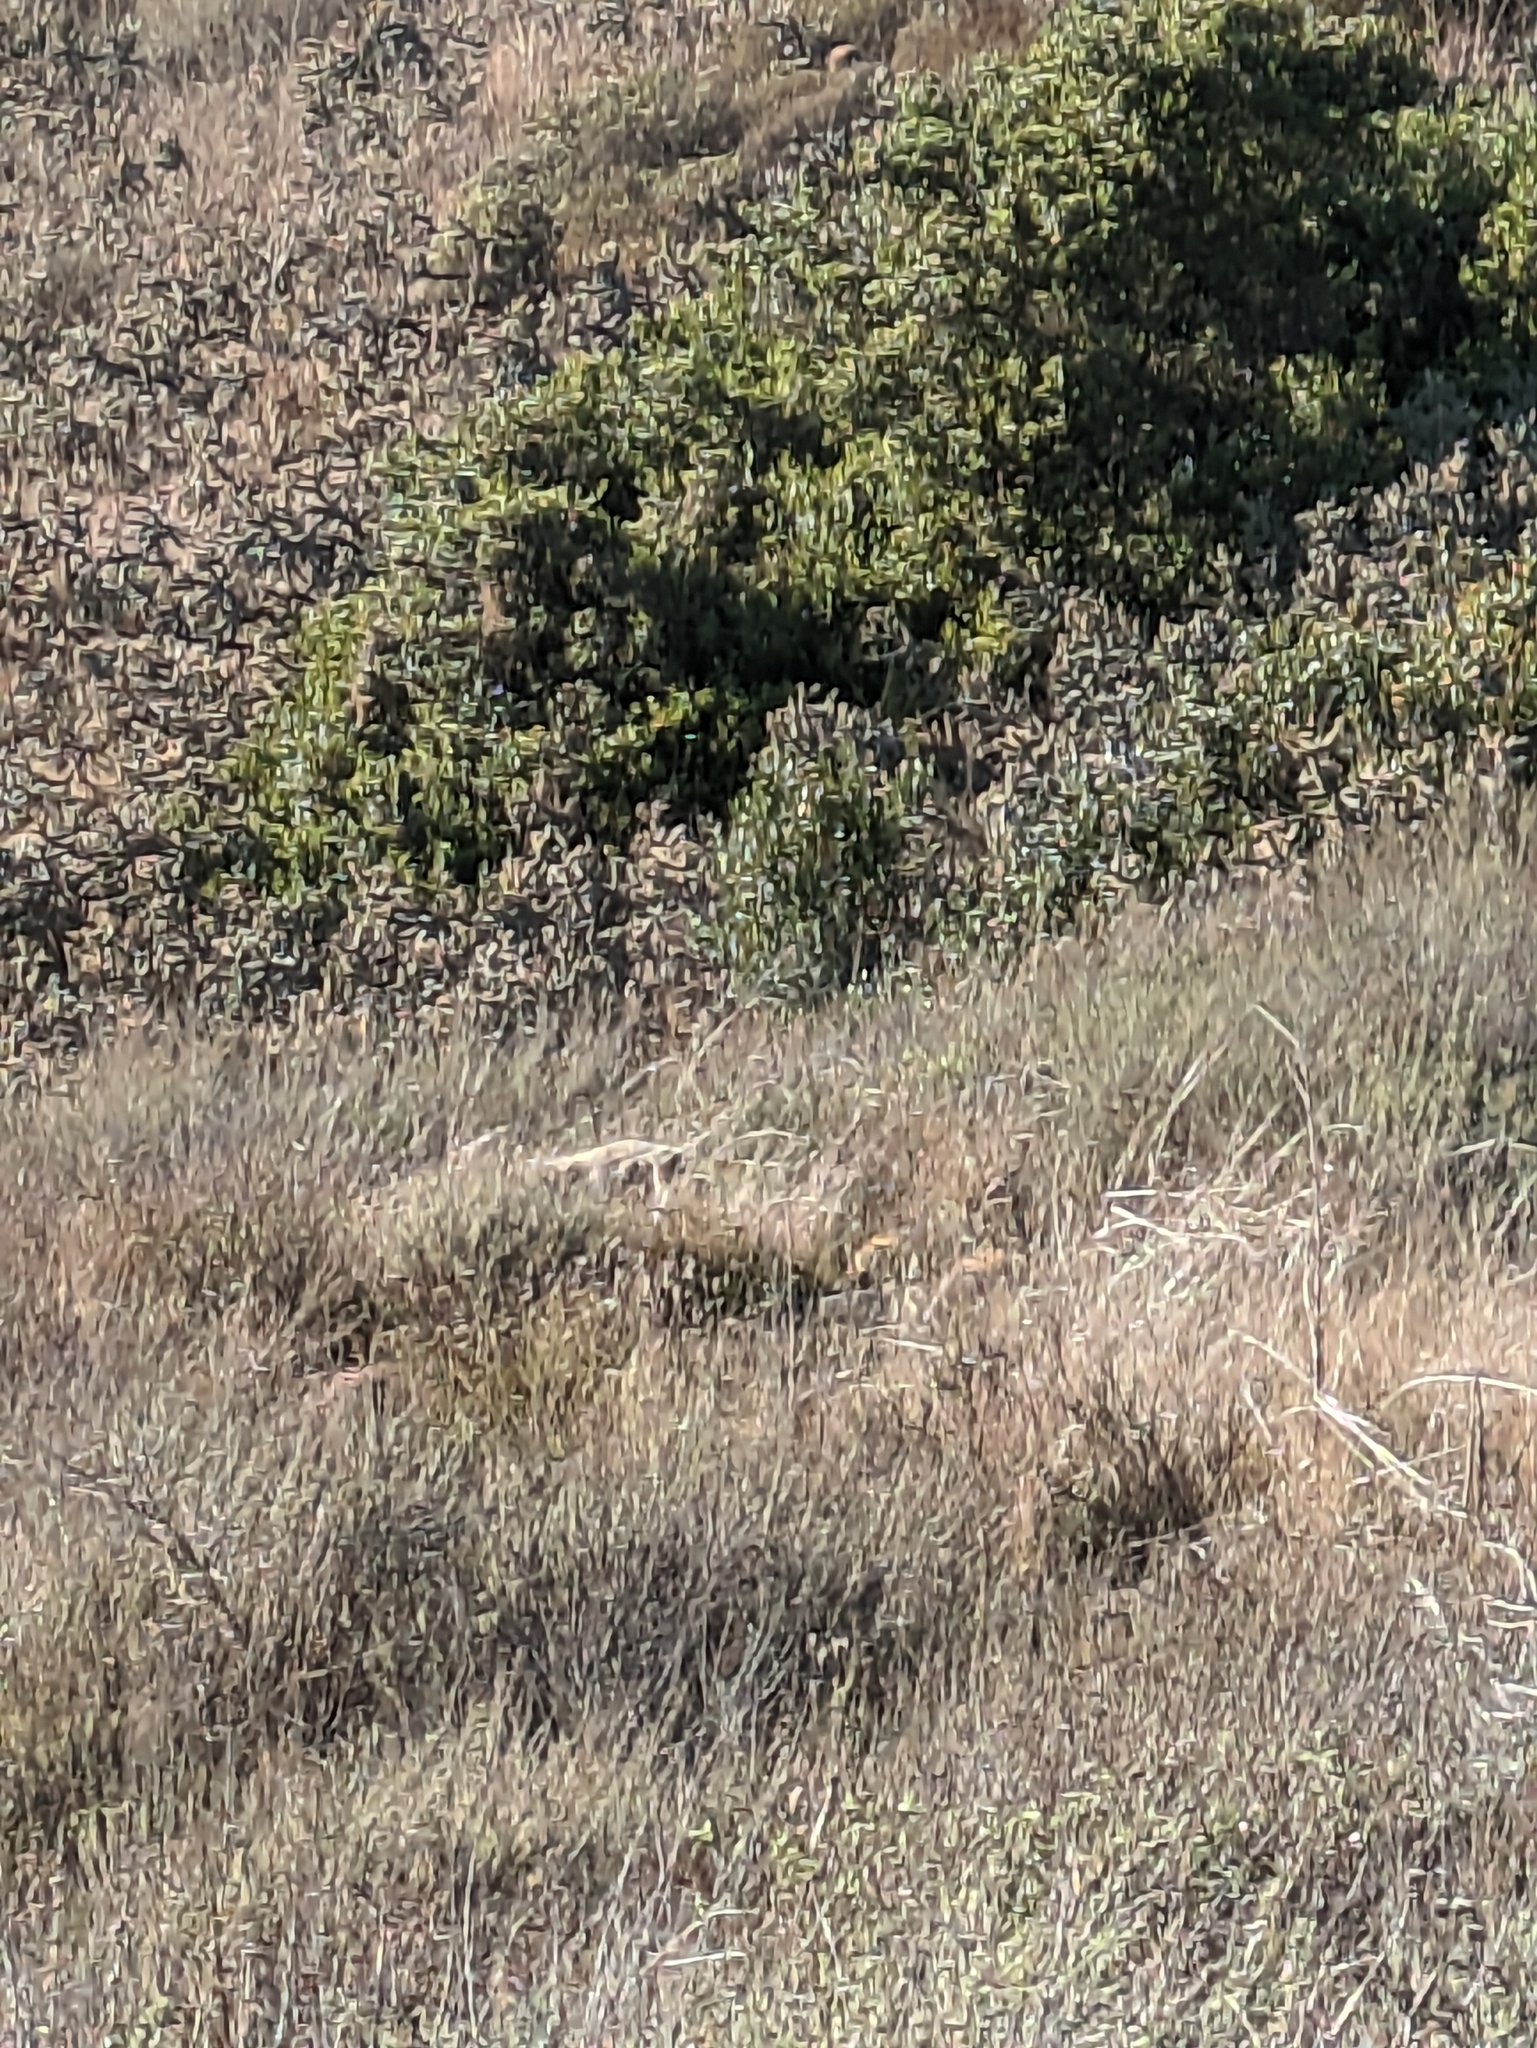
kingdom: Animalia
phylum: Chordata
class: Mammalia
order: Carnivora
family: Canidae
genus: Canis
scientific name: Canis latrans
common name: Coyote
